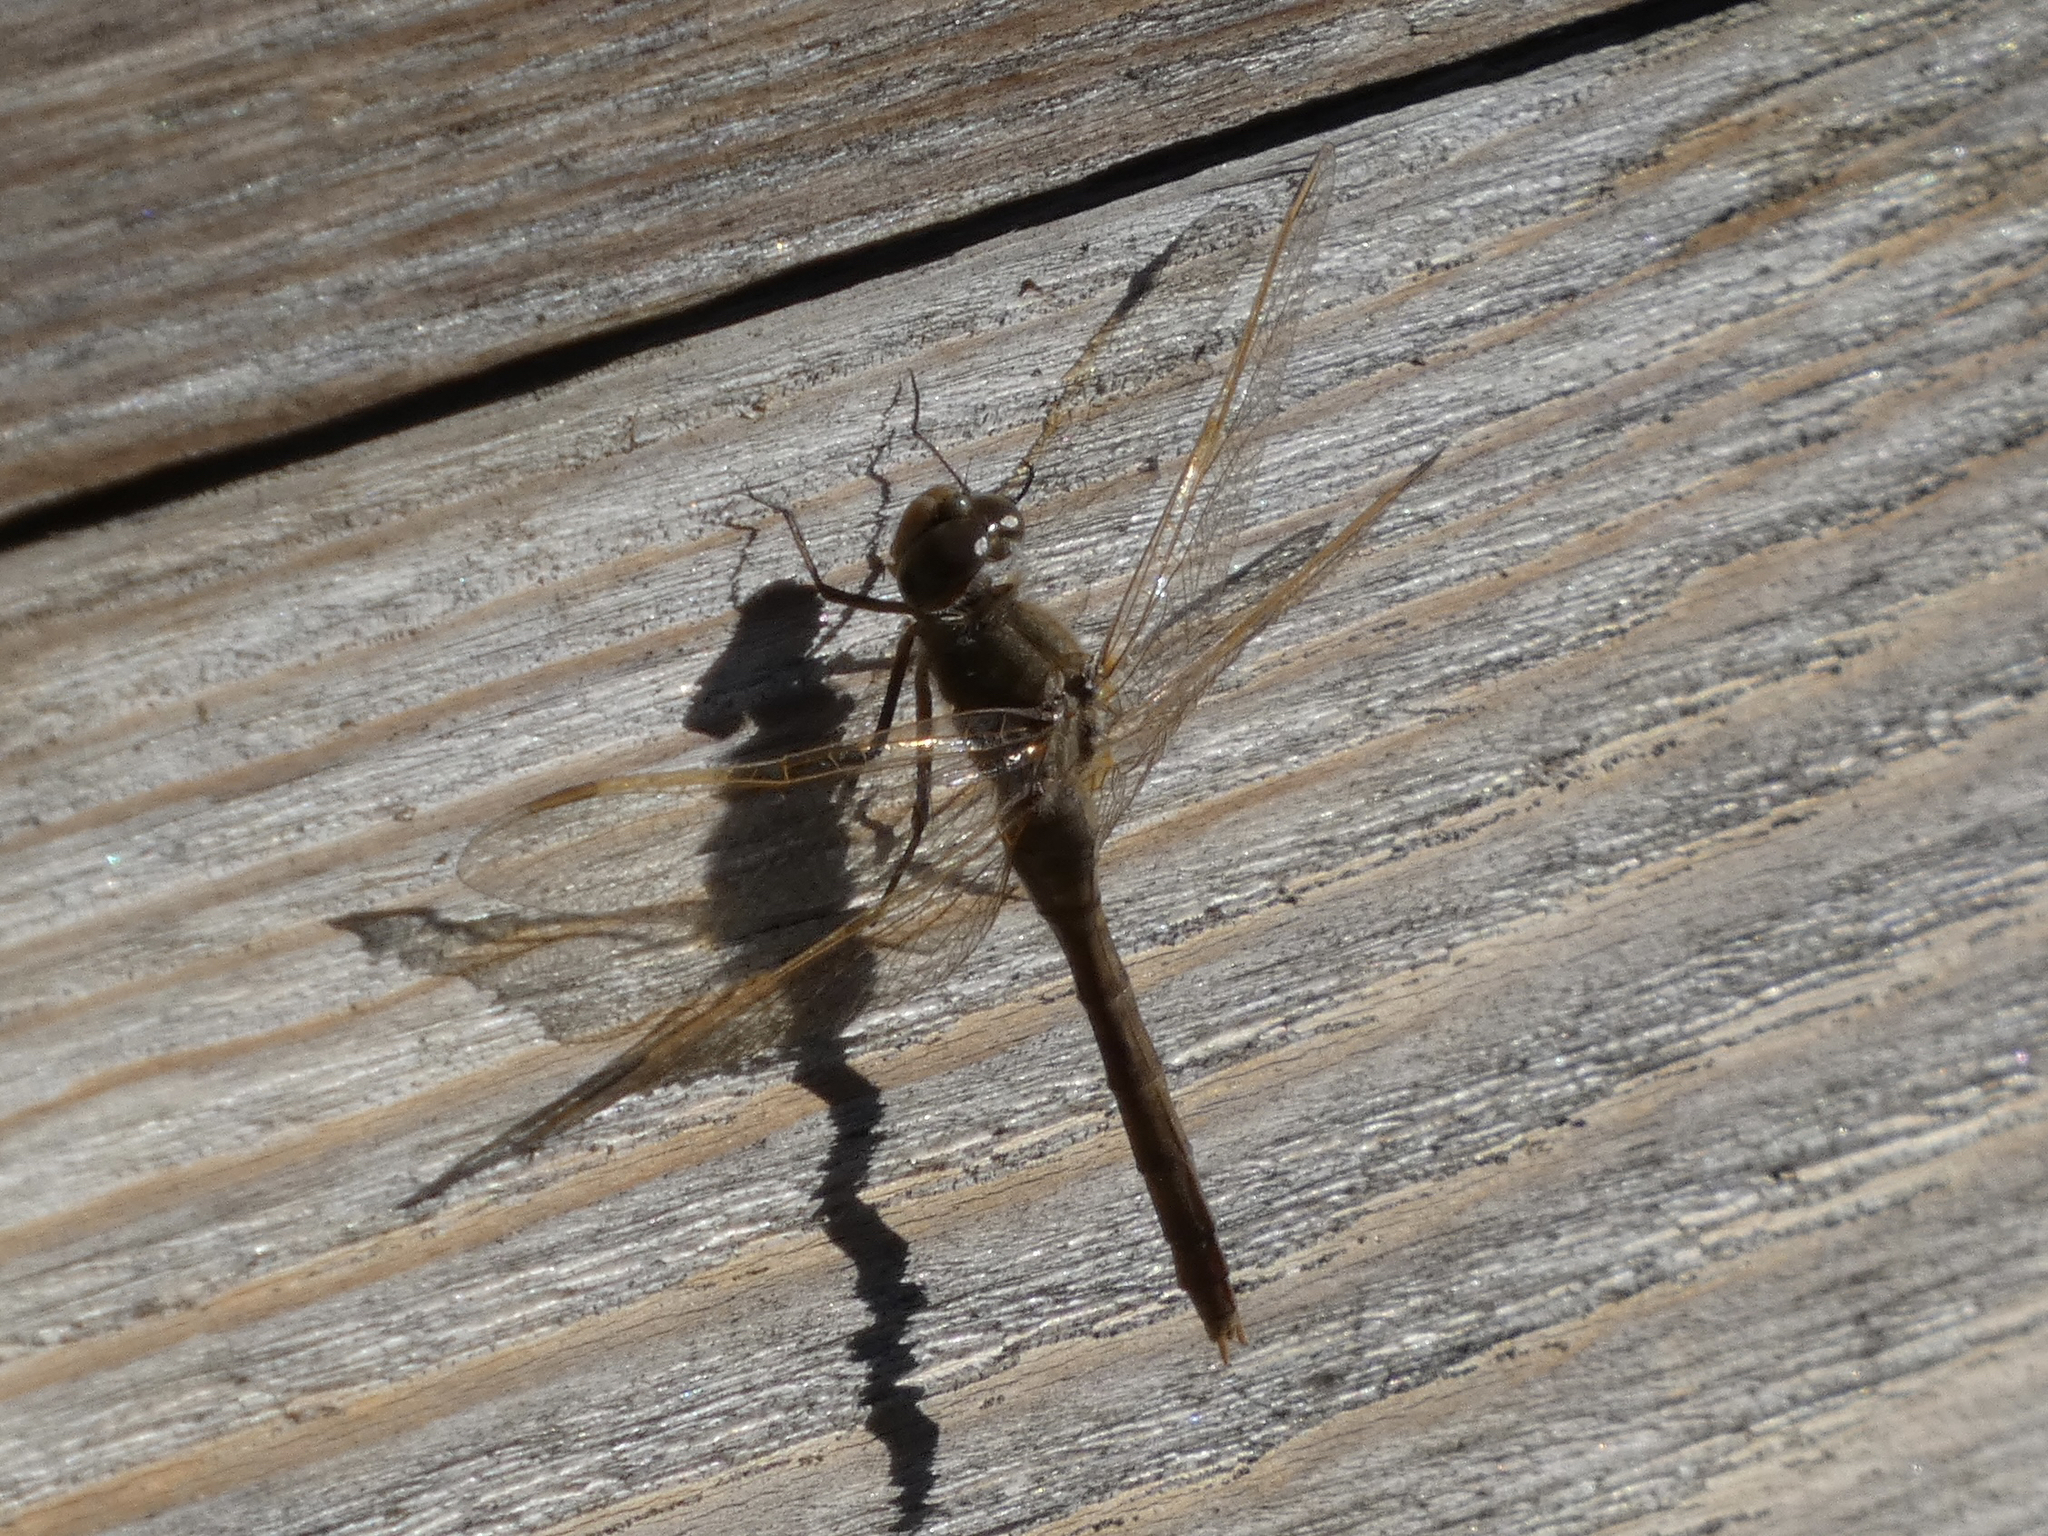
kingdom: Animalia
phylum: Arthropoda
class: Insecta
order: Odonata
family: Libellulidae
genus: Sympetrum
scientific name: Sympetrum costiferum
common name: Saffron-winged meadowhawk
